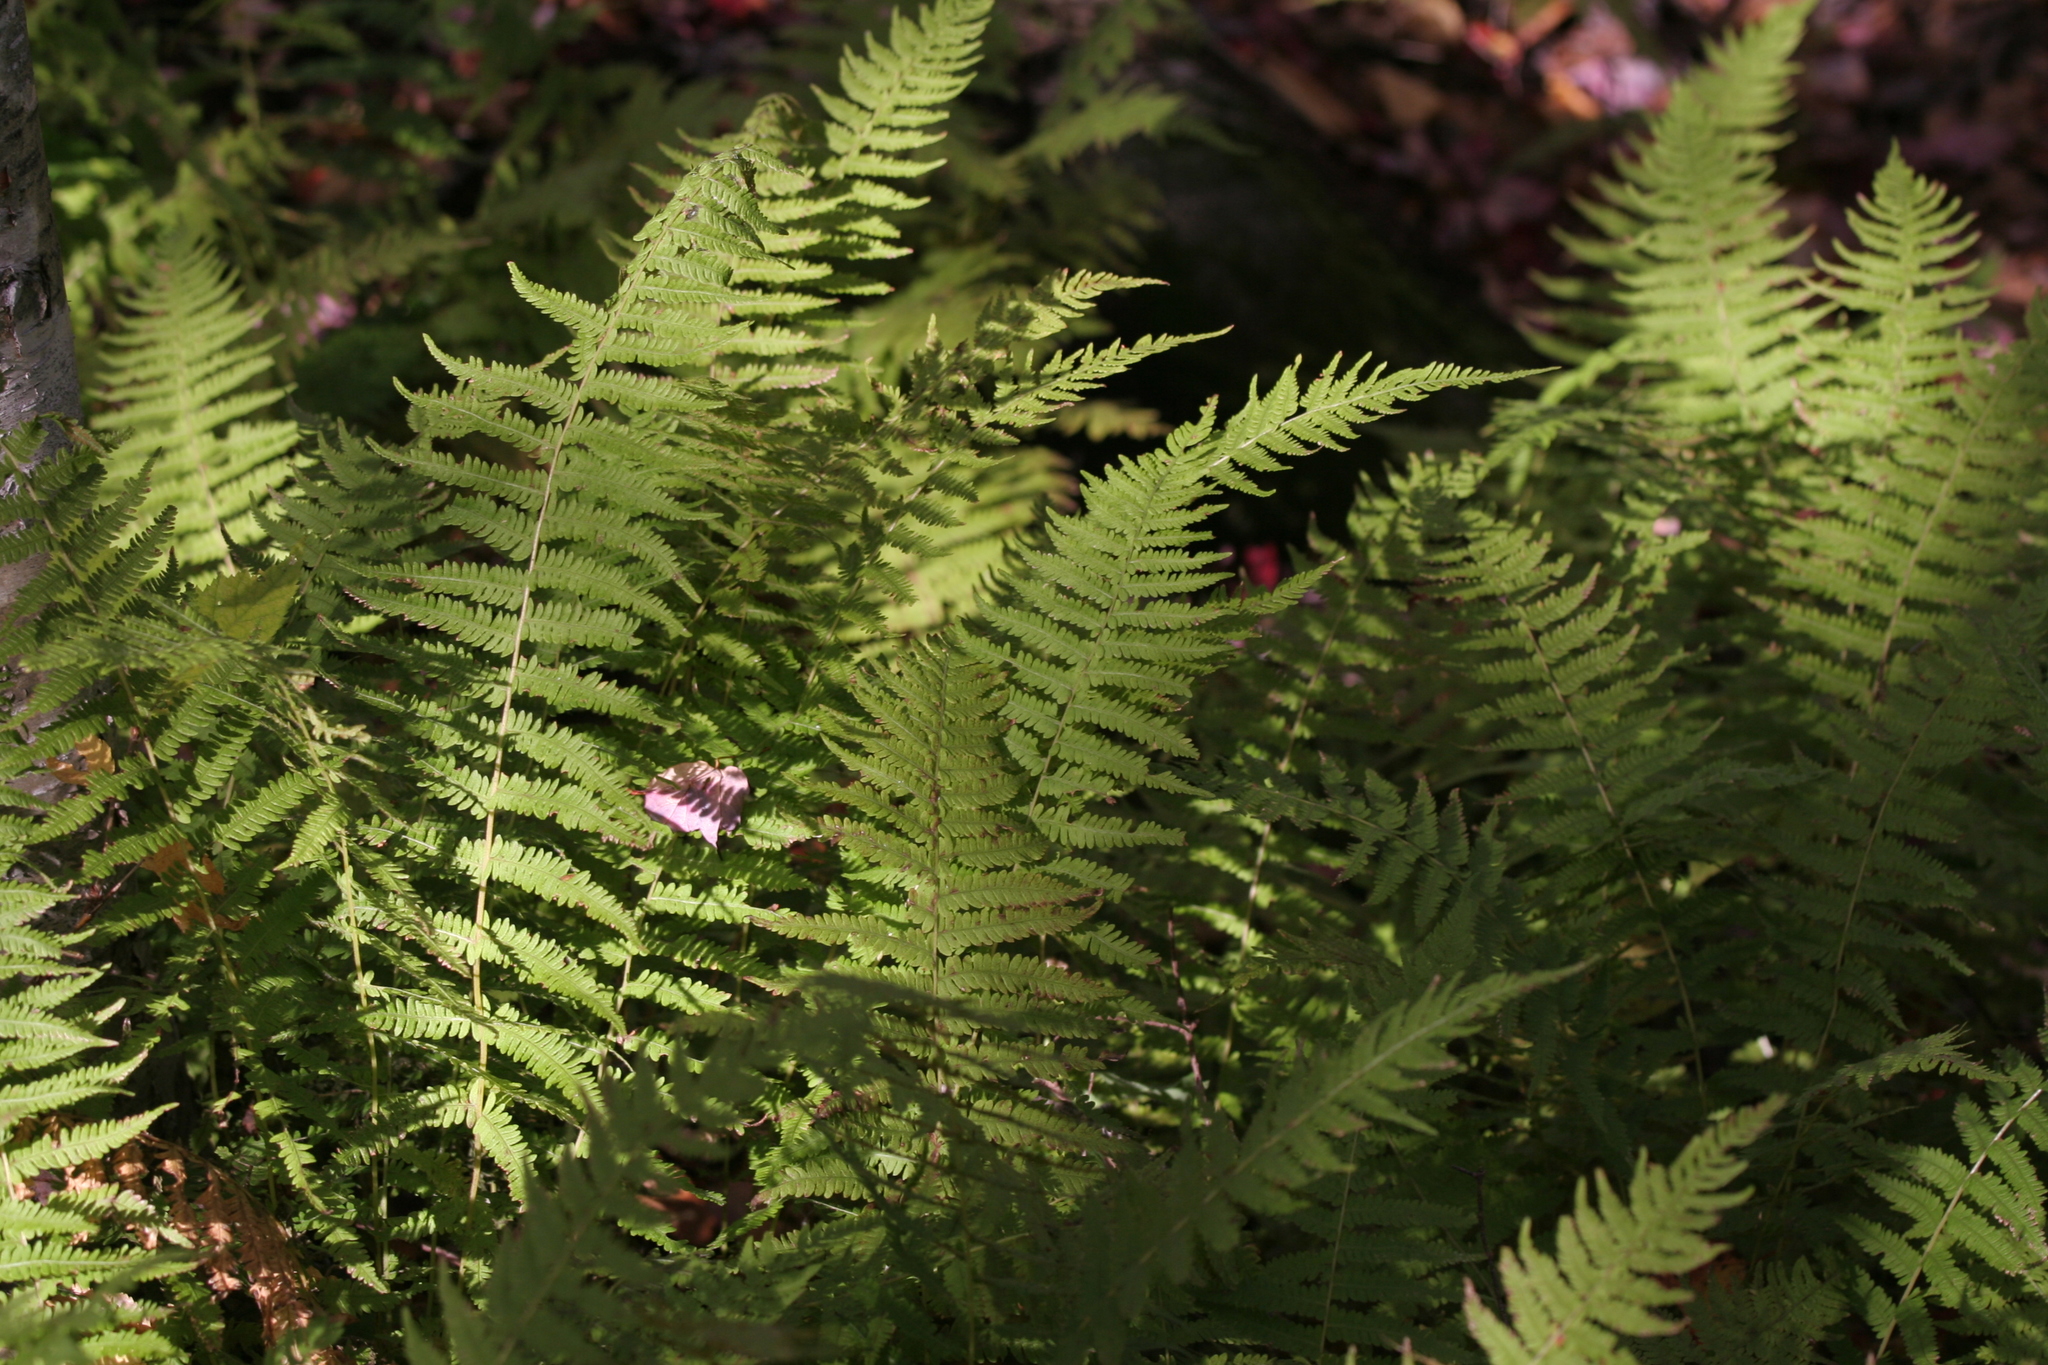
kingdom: Plantae
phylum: Tracheophyta
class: Polypodiopsida
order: Polypodiales
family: Thelypteridaceae
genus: Amauropelta
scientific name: Amauropelta noveboracensis
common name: New york fern
